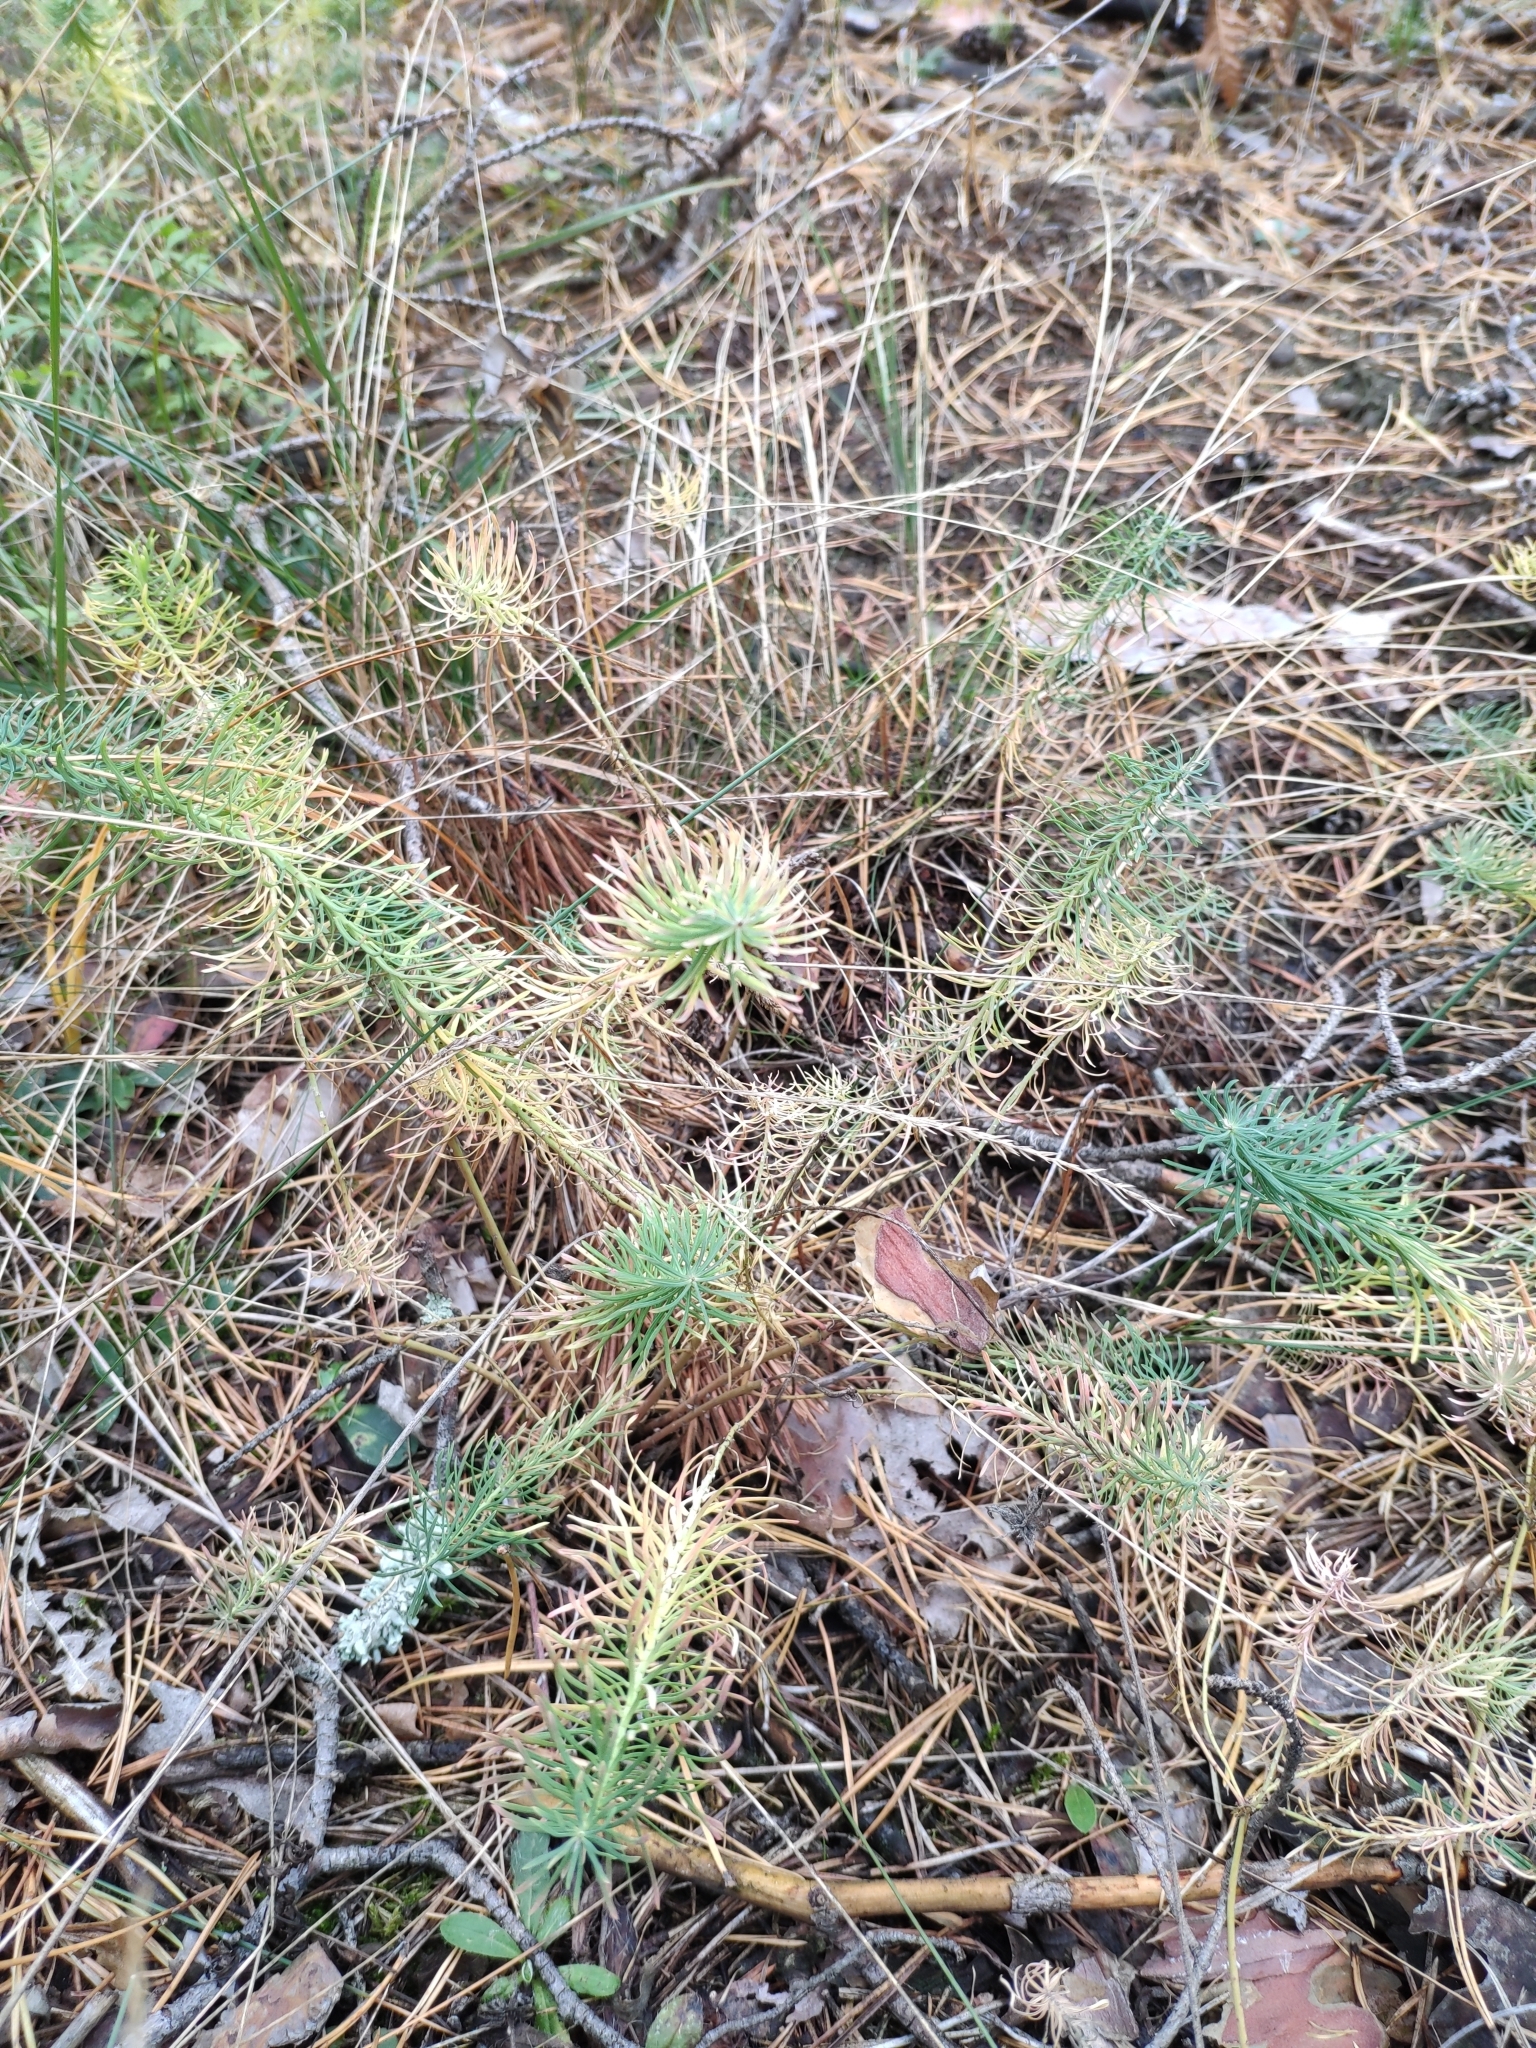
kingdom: Plantae
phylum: Tracheophyta
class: Magnoliopsida
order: Malpighiales
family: Euphorbiaceae
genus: Euphorbia
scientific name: Euphorbia cyparissias
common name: Cypress spurge
